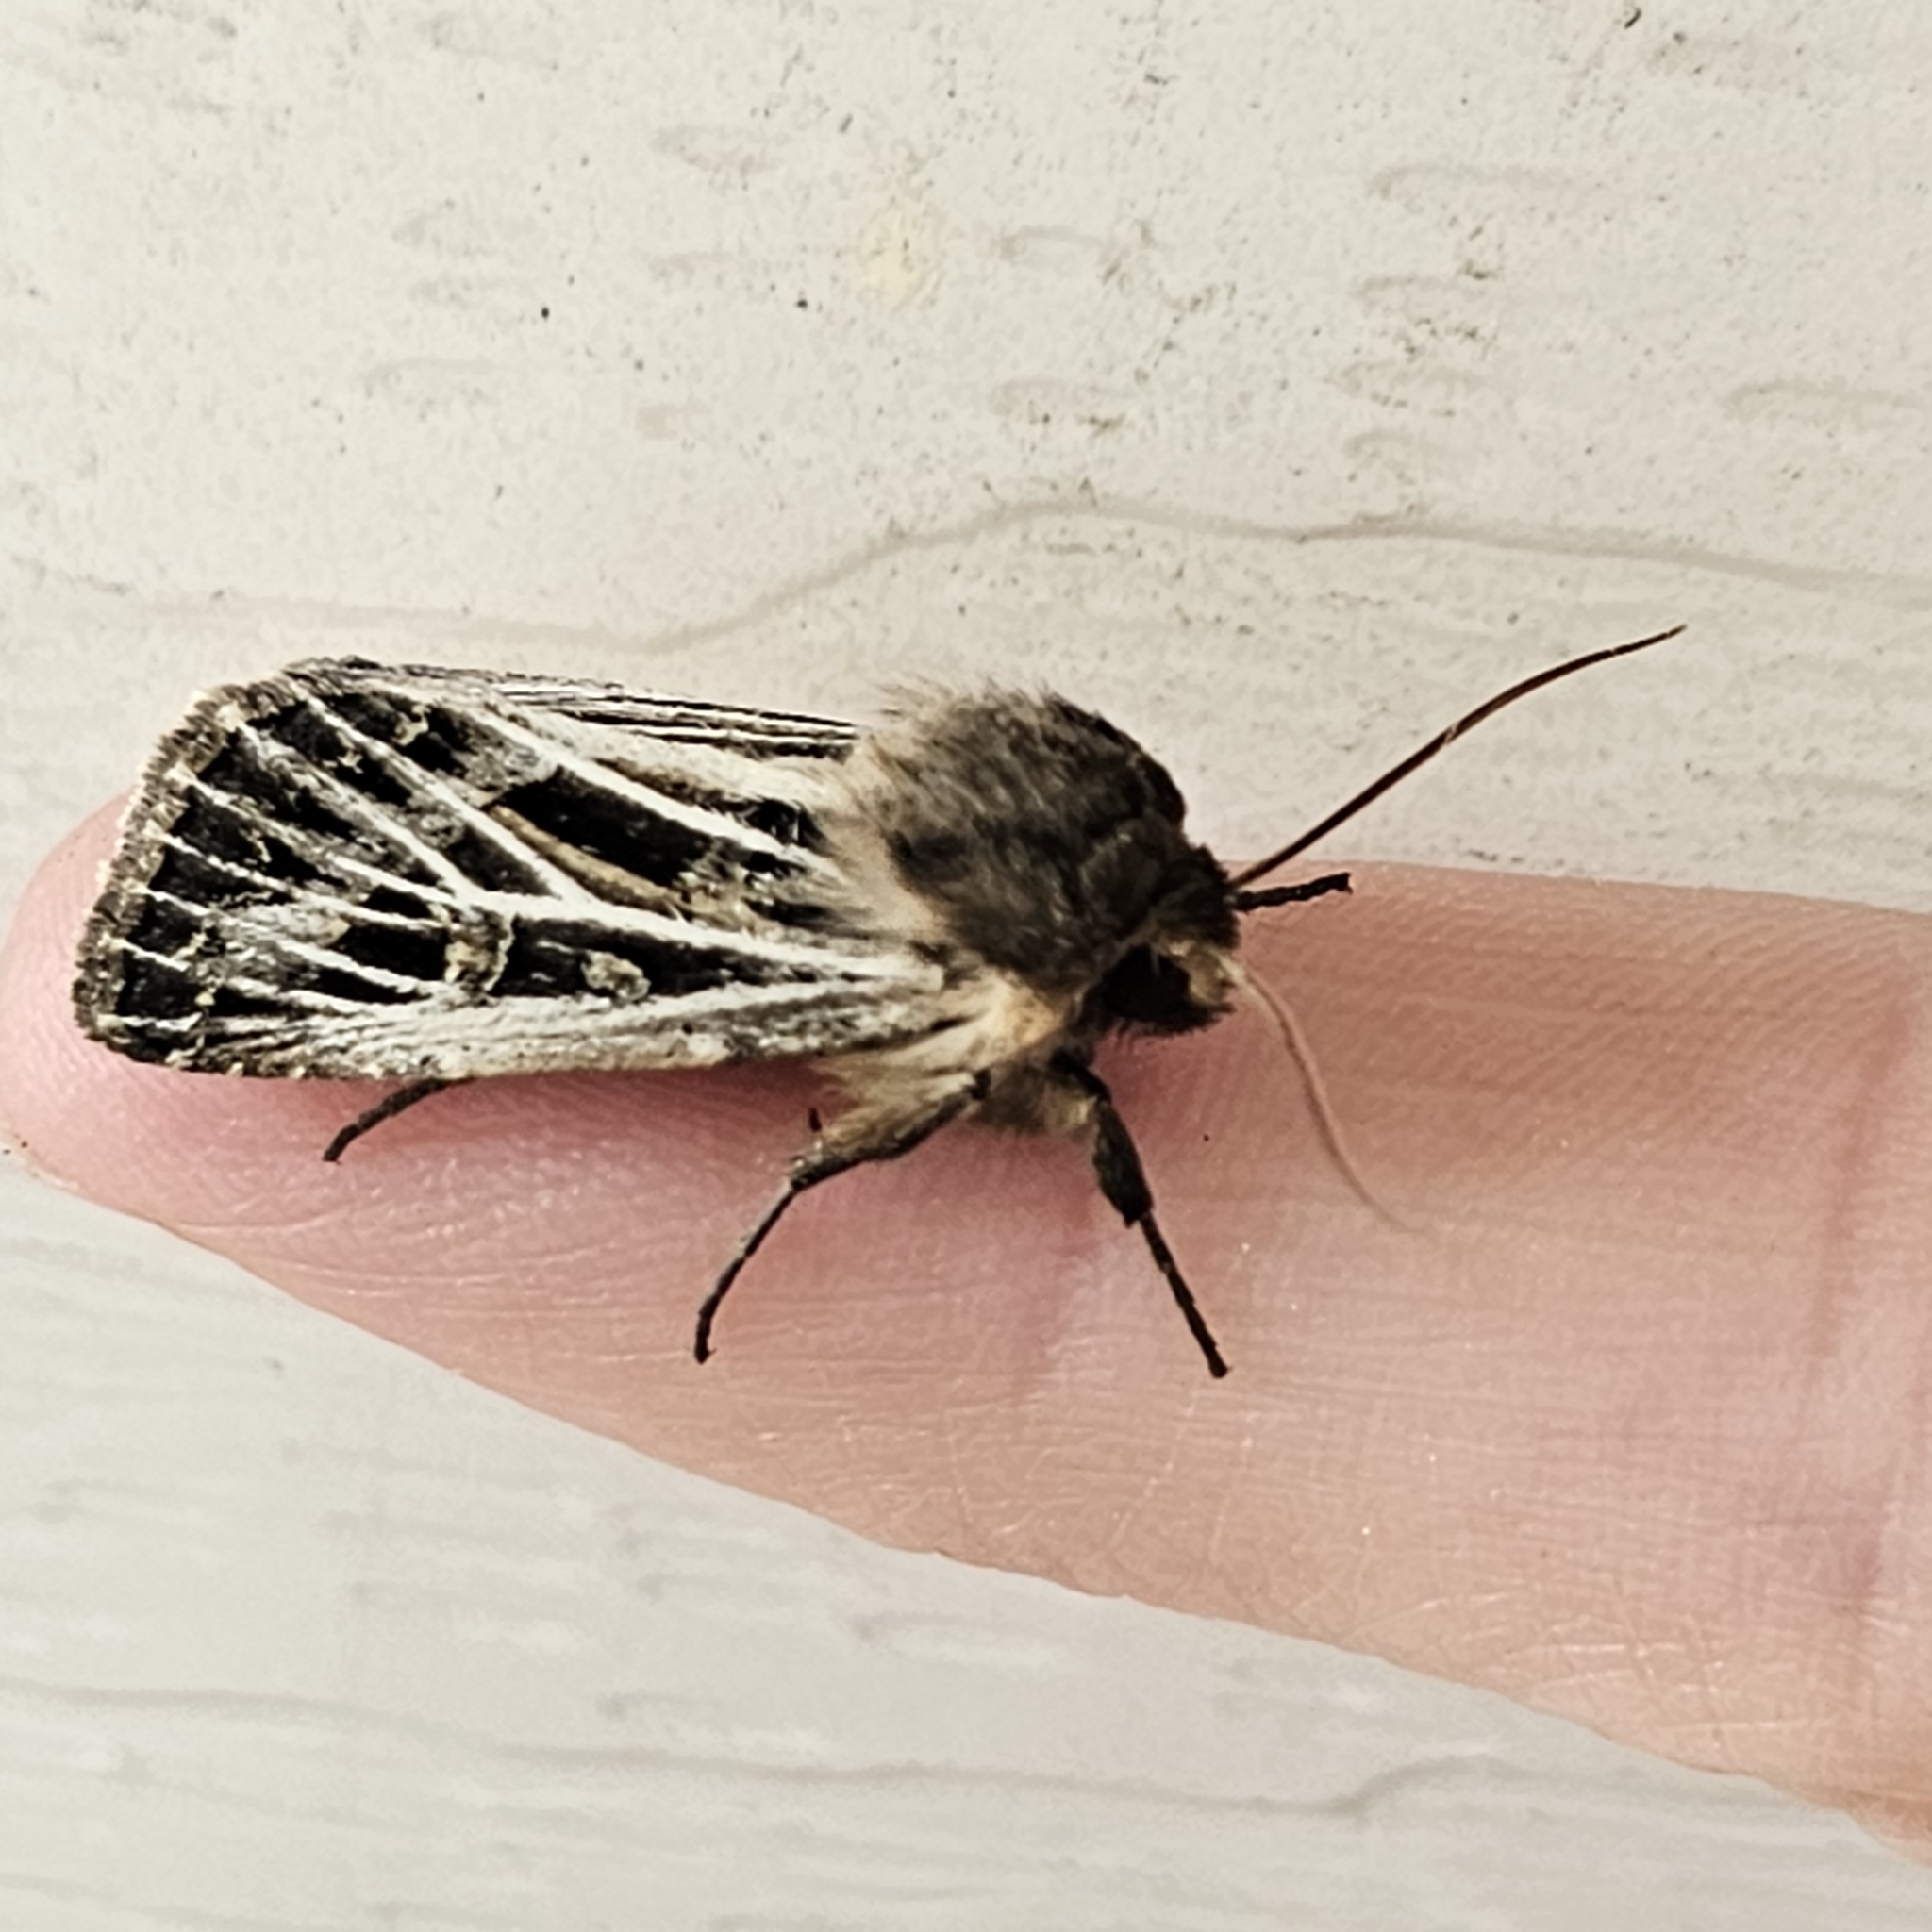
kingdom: Animalia
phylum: Arthropoda
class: Insecta
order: Lepidoptera
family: Noctuidae
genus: Apamea
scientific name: Apamea niveivenosa
